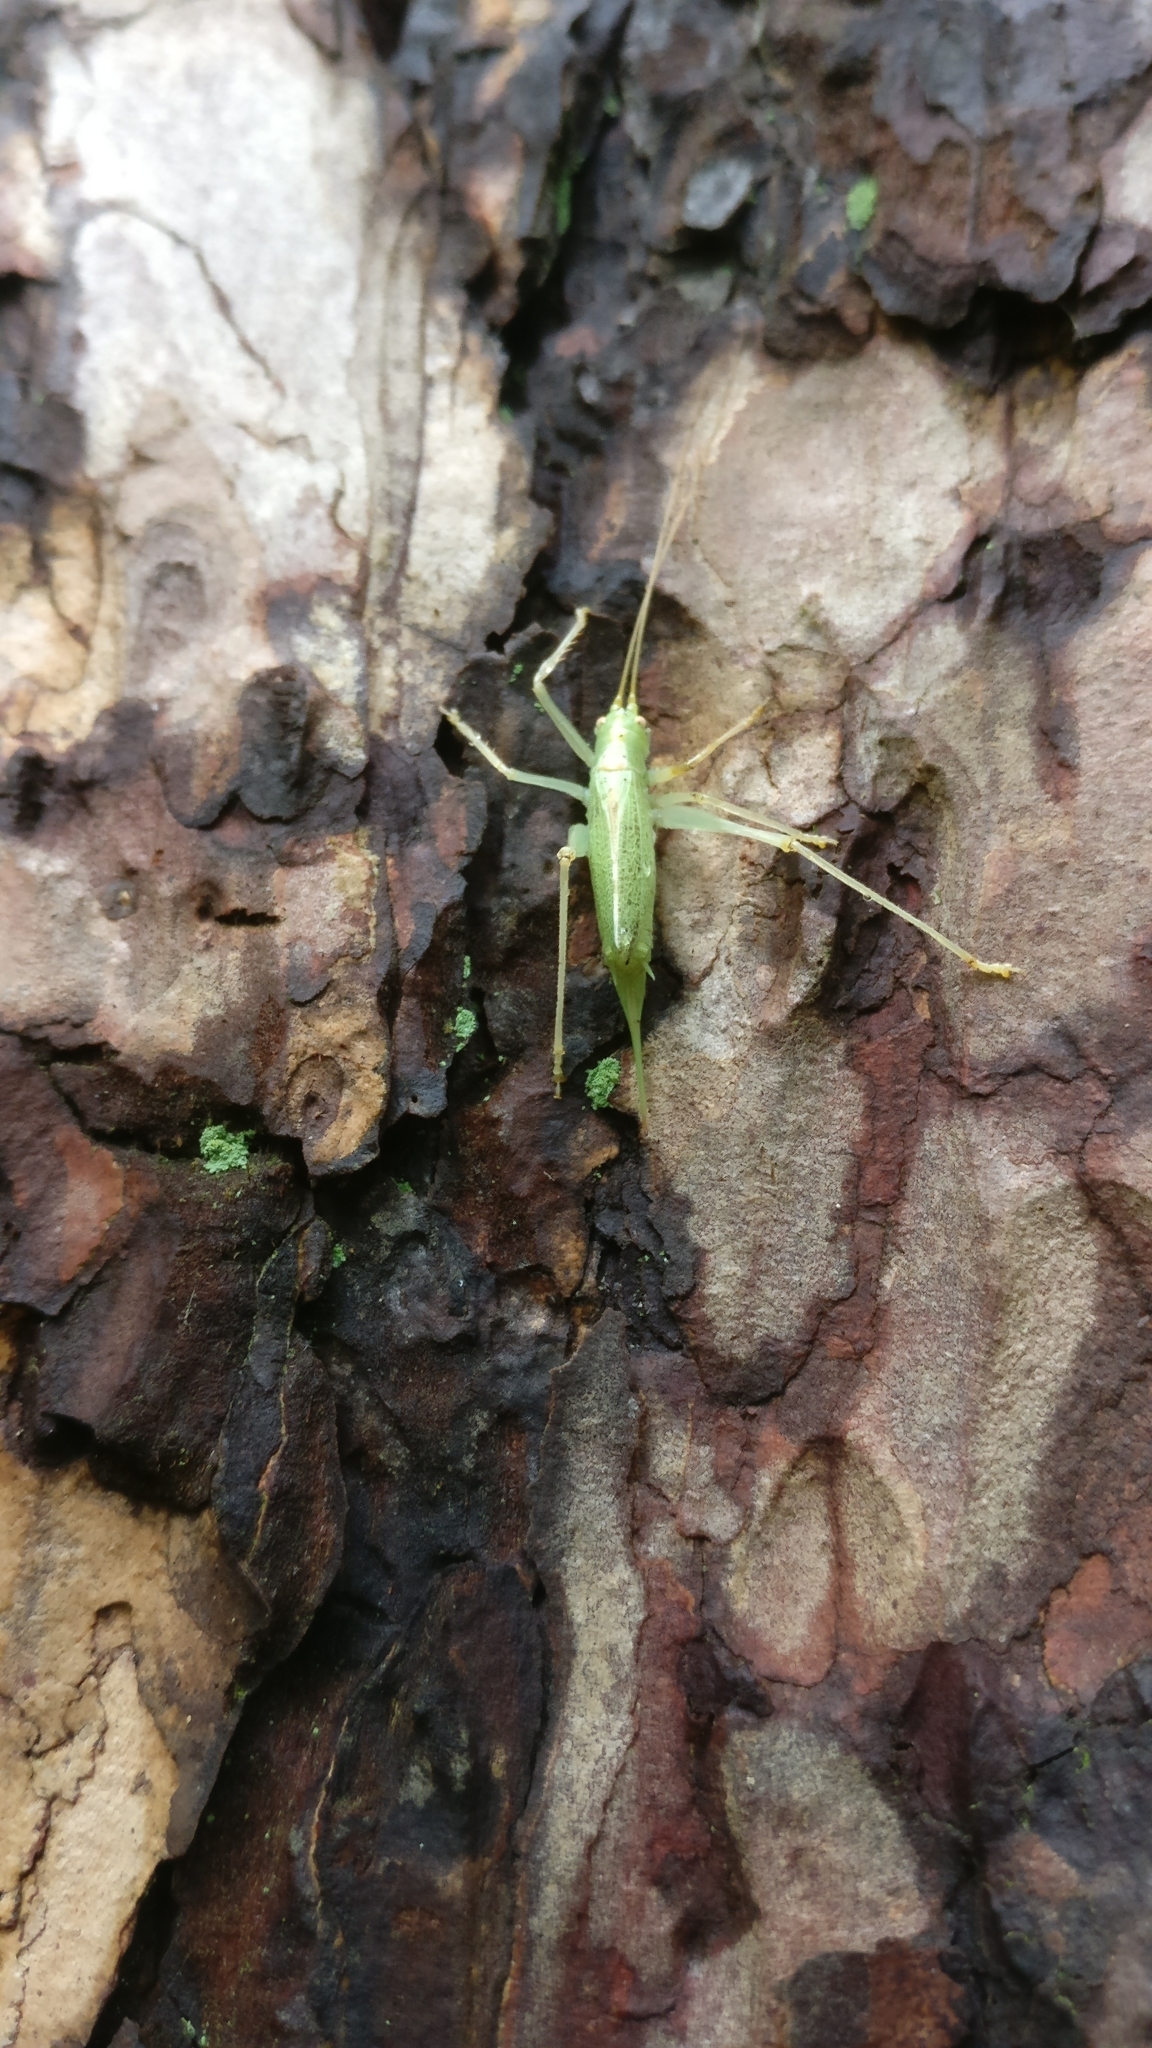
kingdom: Animalia
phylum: Arthropoda
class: Insecta
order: Orthoptera
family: Tettigoniidae
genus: Meconema
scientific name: Meconema thalassinum
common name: Oak bush-cricket
